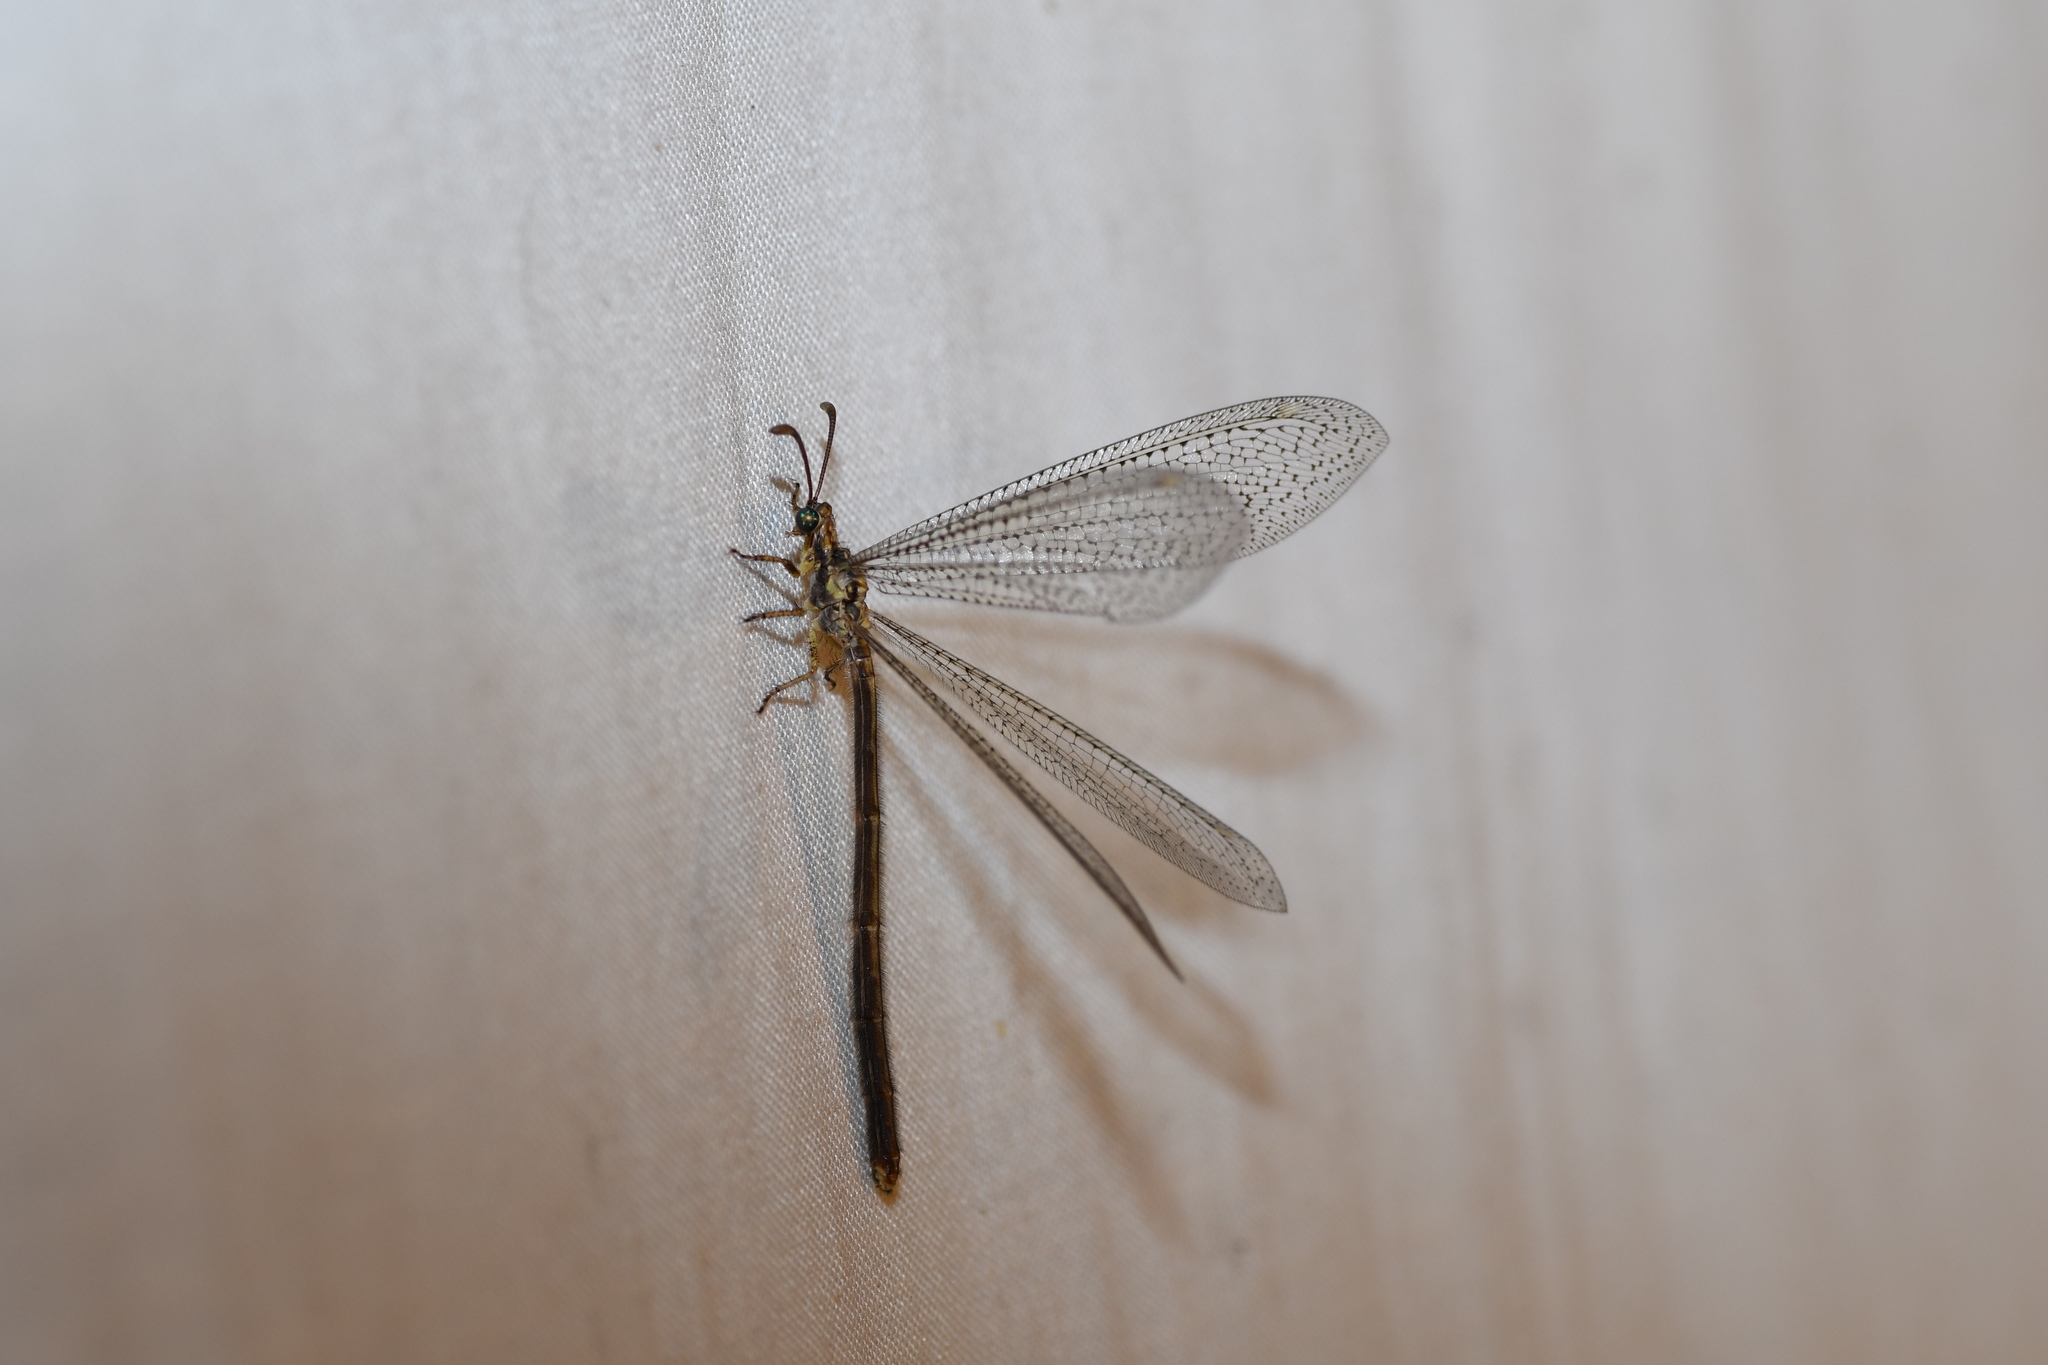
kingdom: Animalia
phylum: Arthropoda
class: Insecta
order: Neuroptera
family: Myrmeleontidae
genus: Brachynemurus
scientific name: Brachynemurus abdominalis
